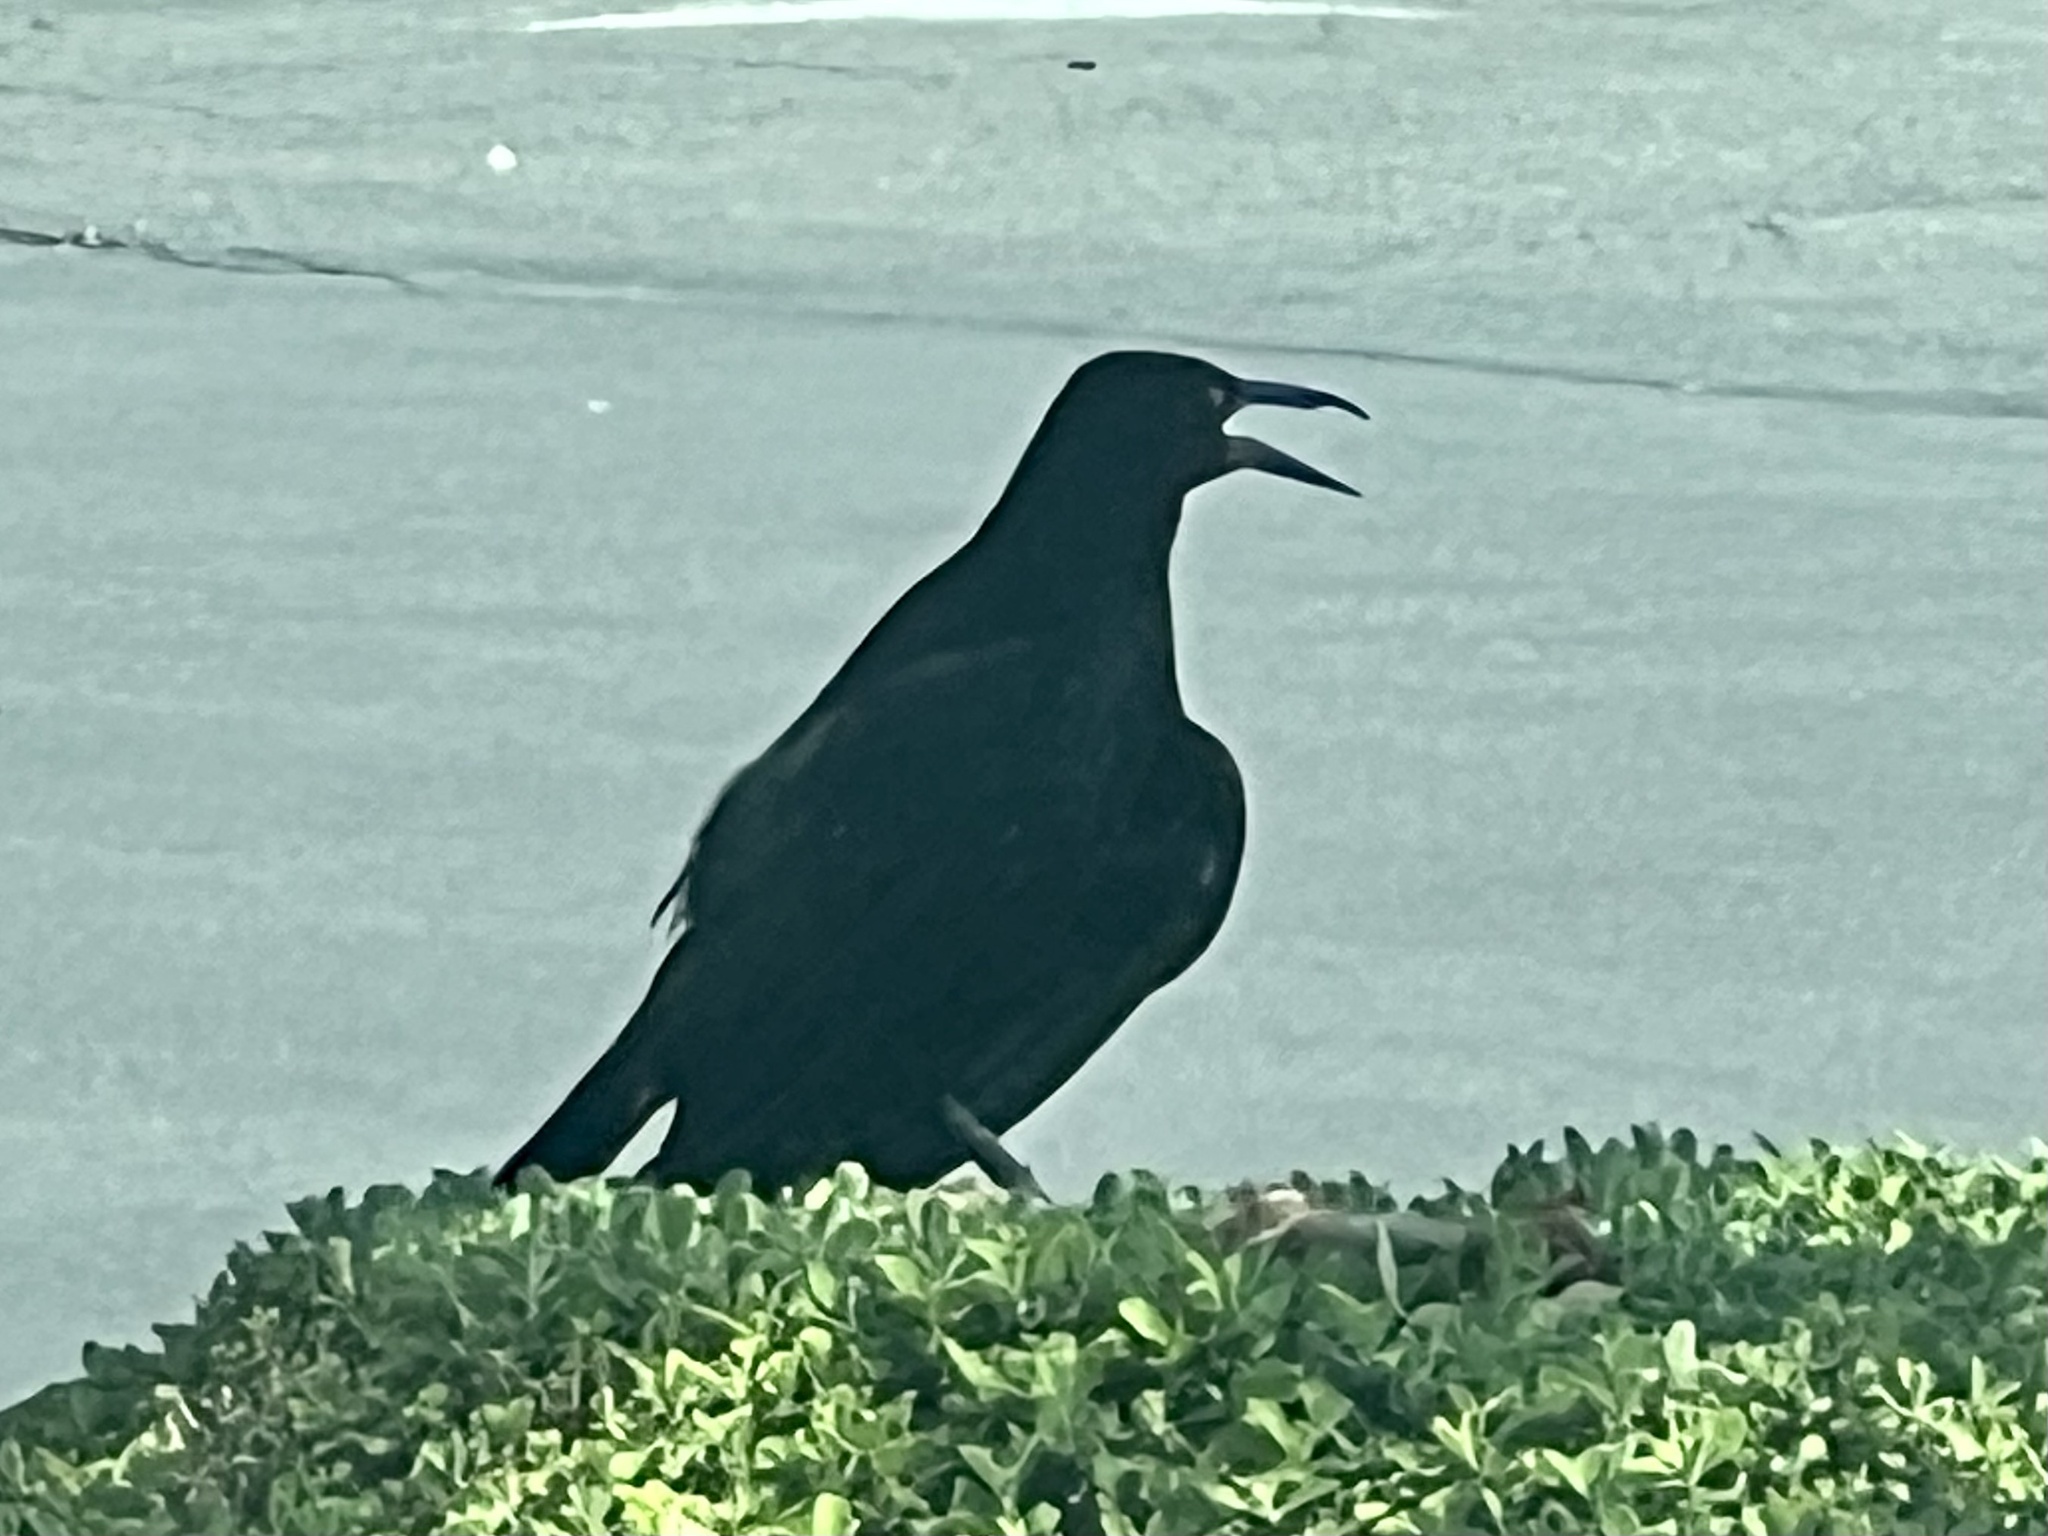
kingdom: Animalia
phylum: Chordata
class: Aves
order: Passeriformes
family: Icteridae
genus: Quiscalus
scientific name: Quiscalus mexicanus
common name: Great-tailed grackle
